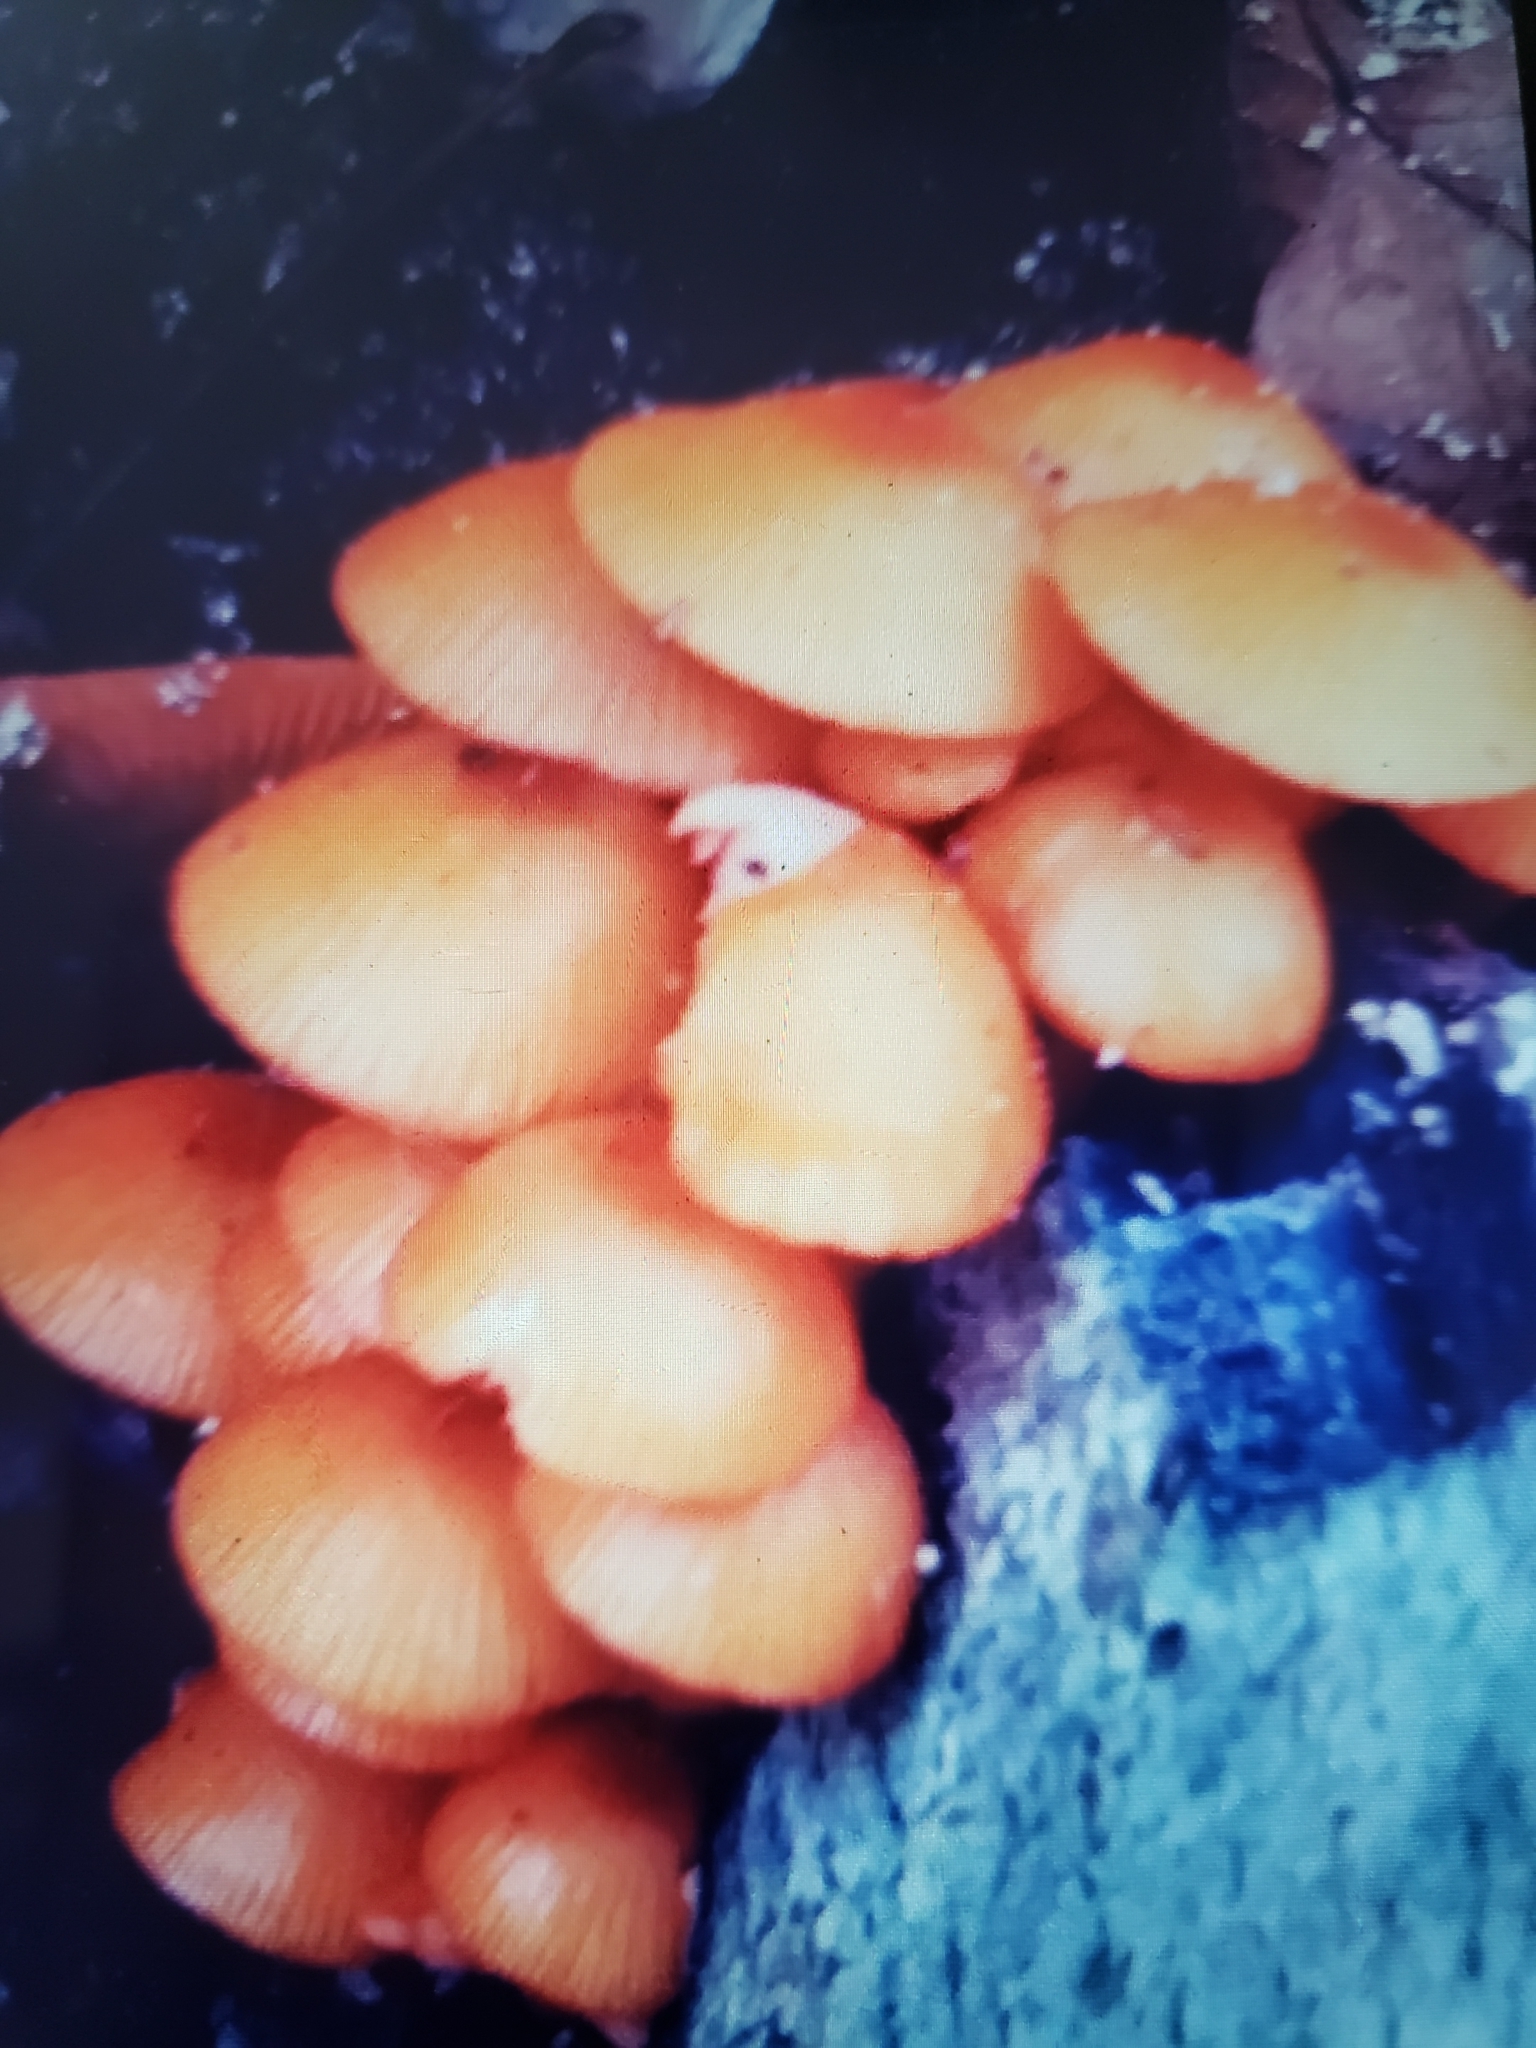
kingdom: Fungi
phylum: Basidiomycota
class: Agaricomycetes
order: Agaricales
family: Mycenaceae
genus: Mycena
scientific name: Mycena leaiana
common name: Orange mycena
